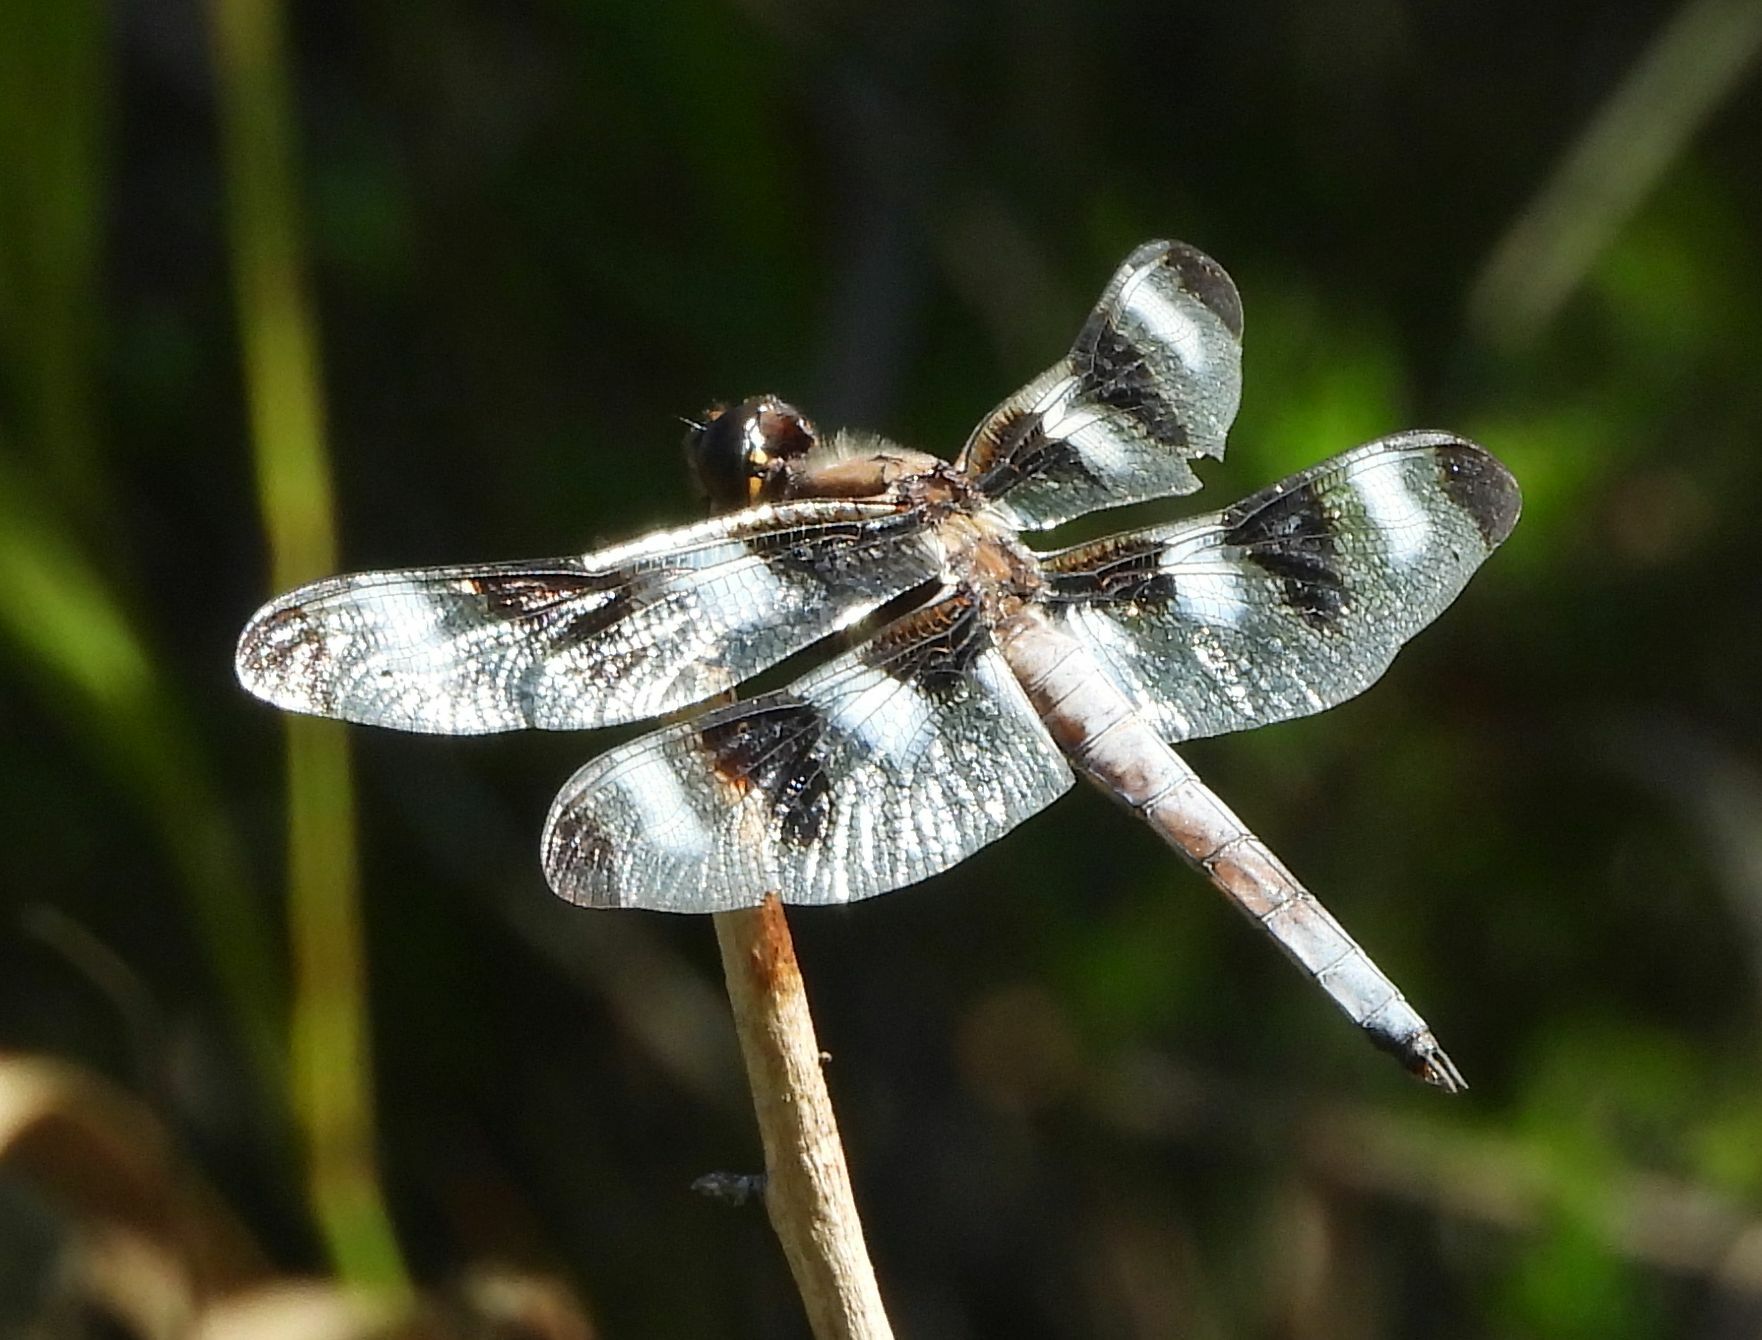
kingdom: Animalia
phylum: Arthropoda
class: Insecta
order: Odonata
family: Libellulidae
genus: Libellula
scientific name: Libellula pulchella
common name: Twelve-spotted skimmer
